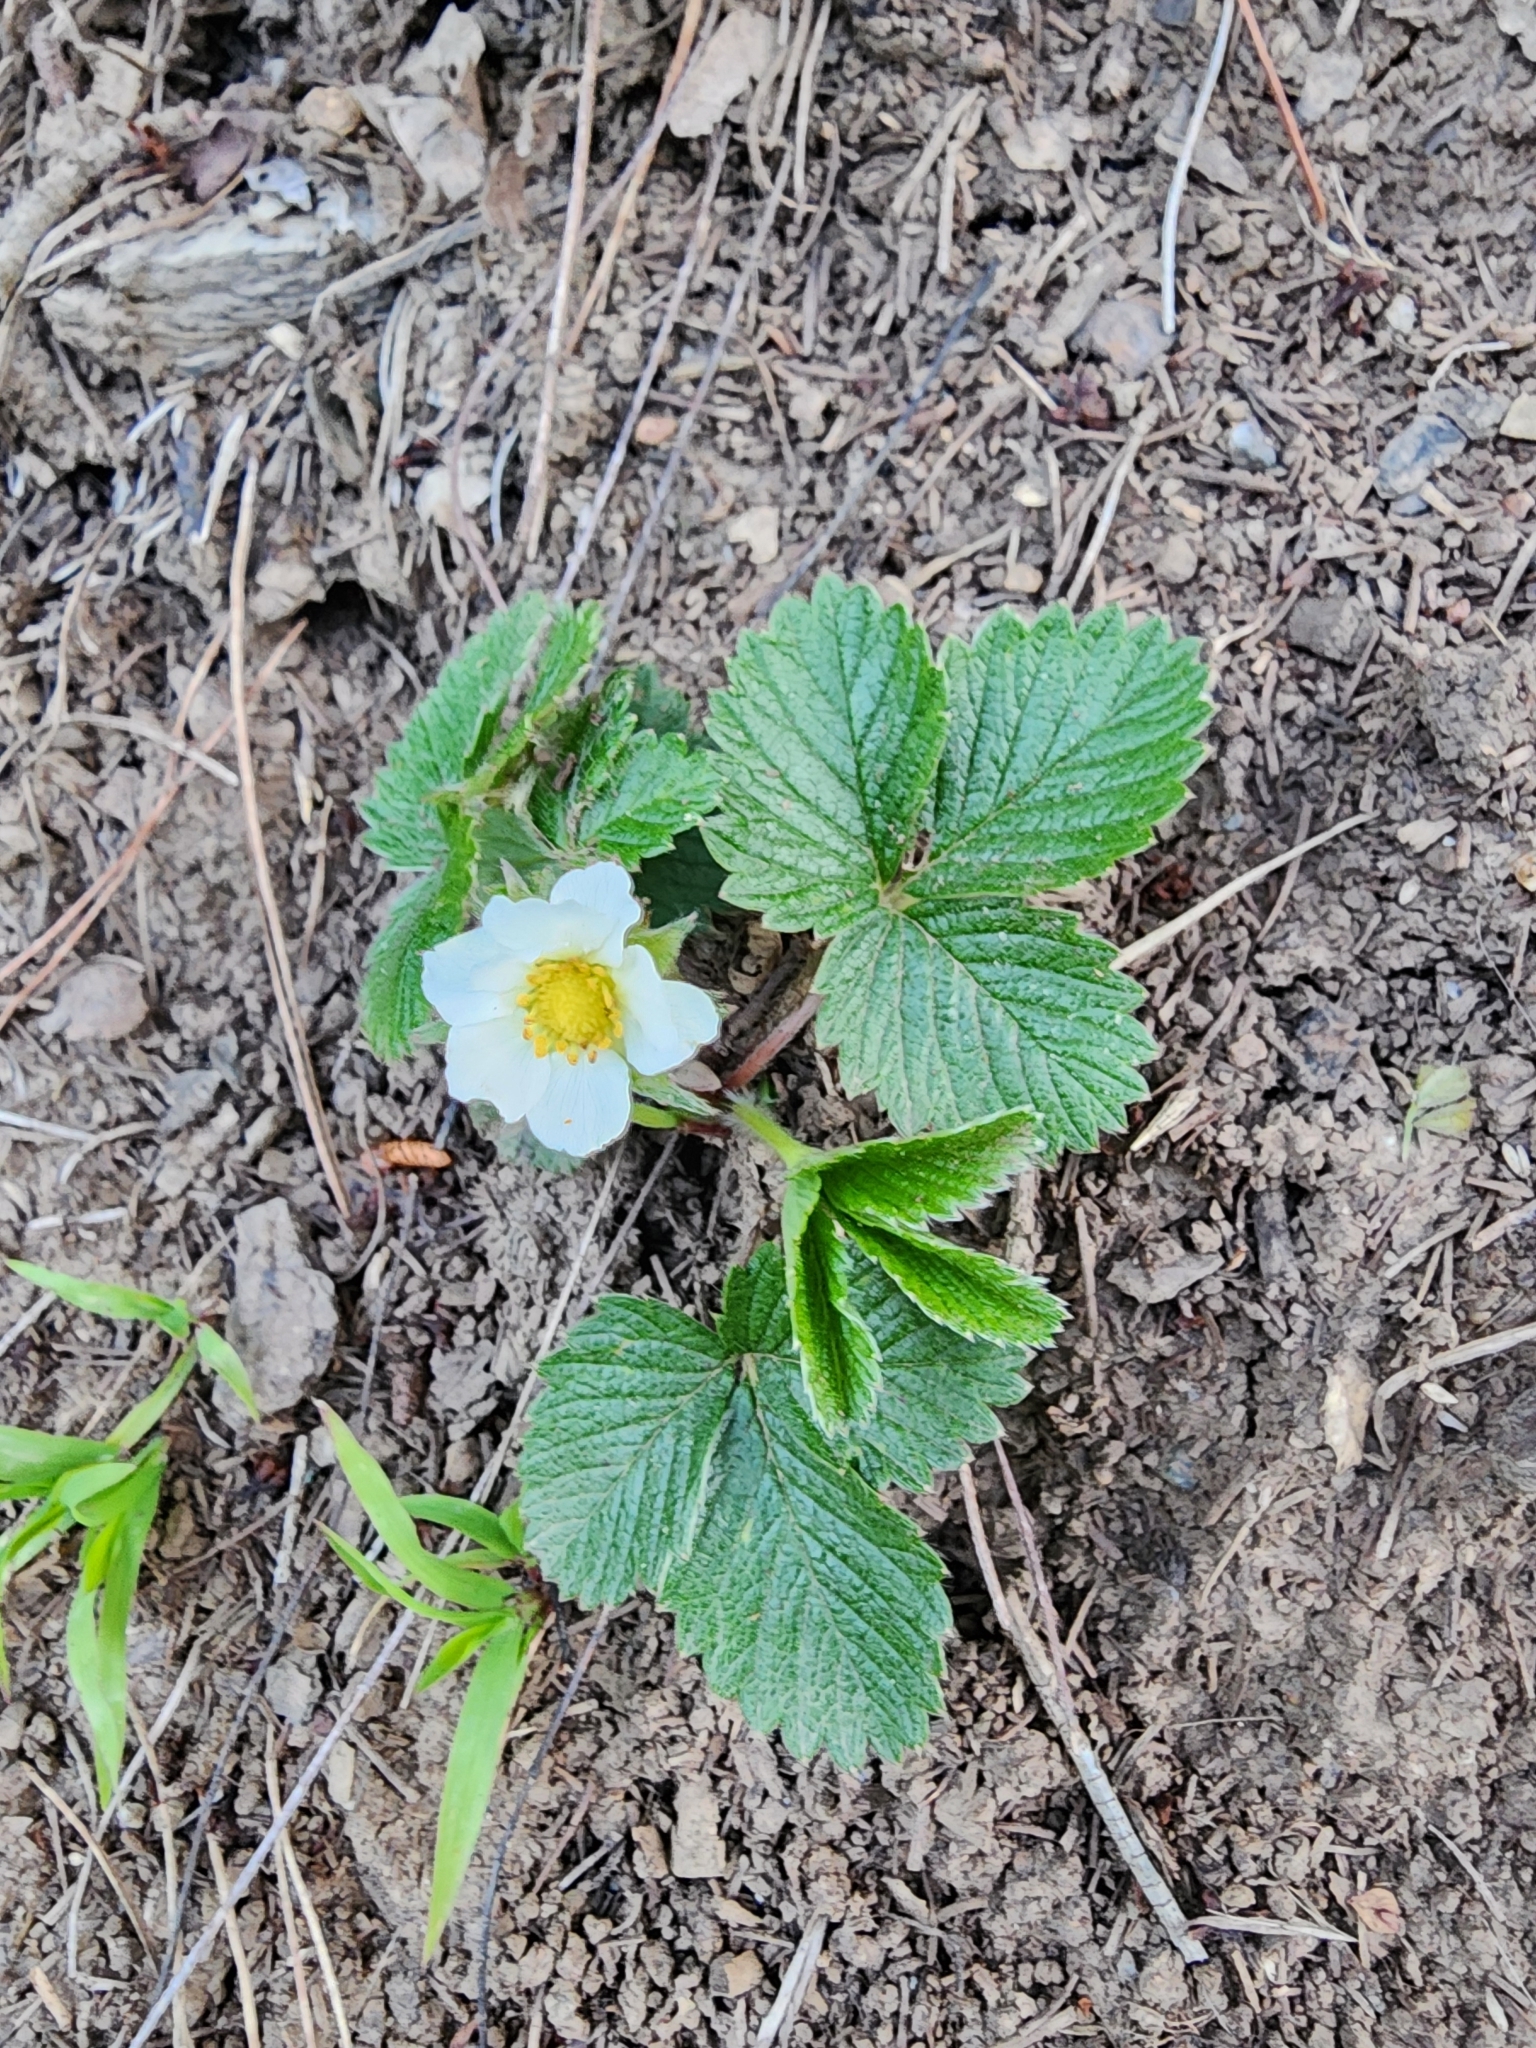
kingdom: Plantae
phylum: Tracheophyta
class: Magnoliopsida
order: Rosales
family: Rosaceae
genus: Fragaria
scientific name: Fragaria vesca
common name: Wild strawberry
